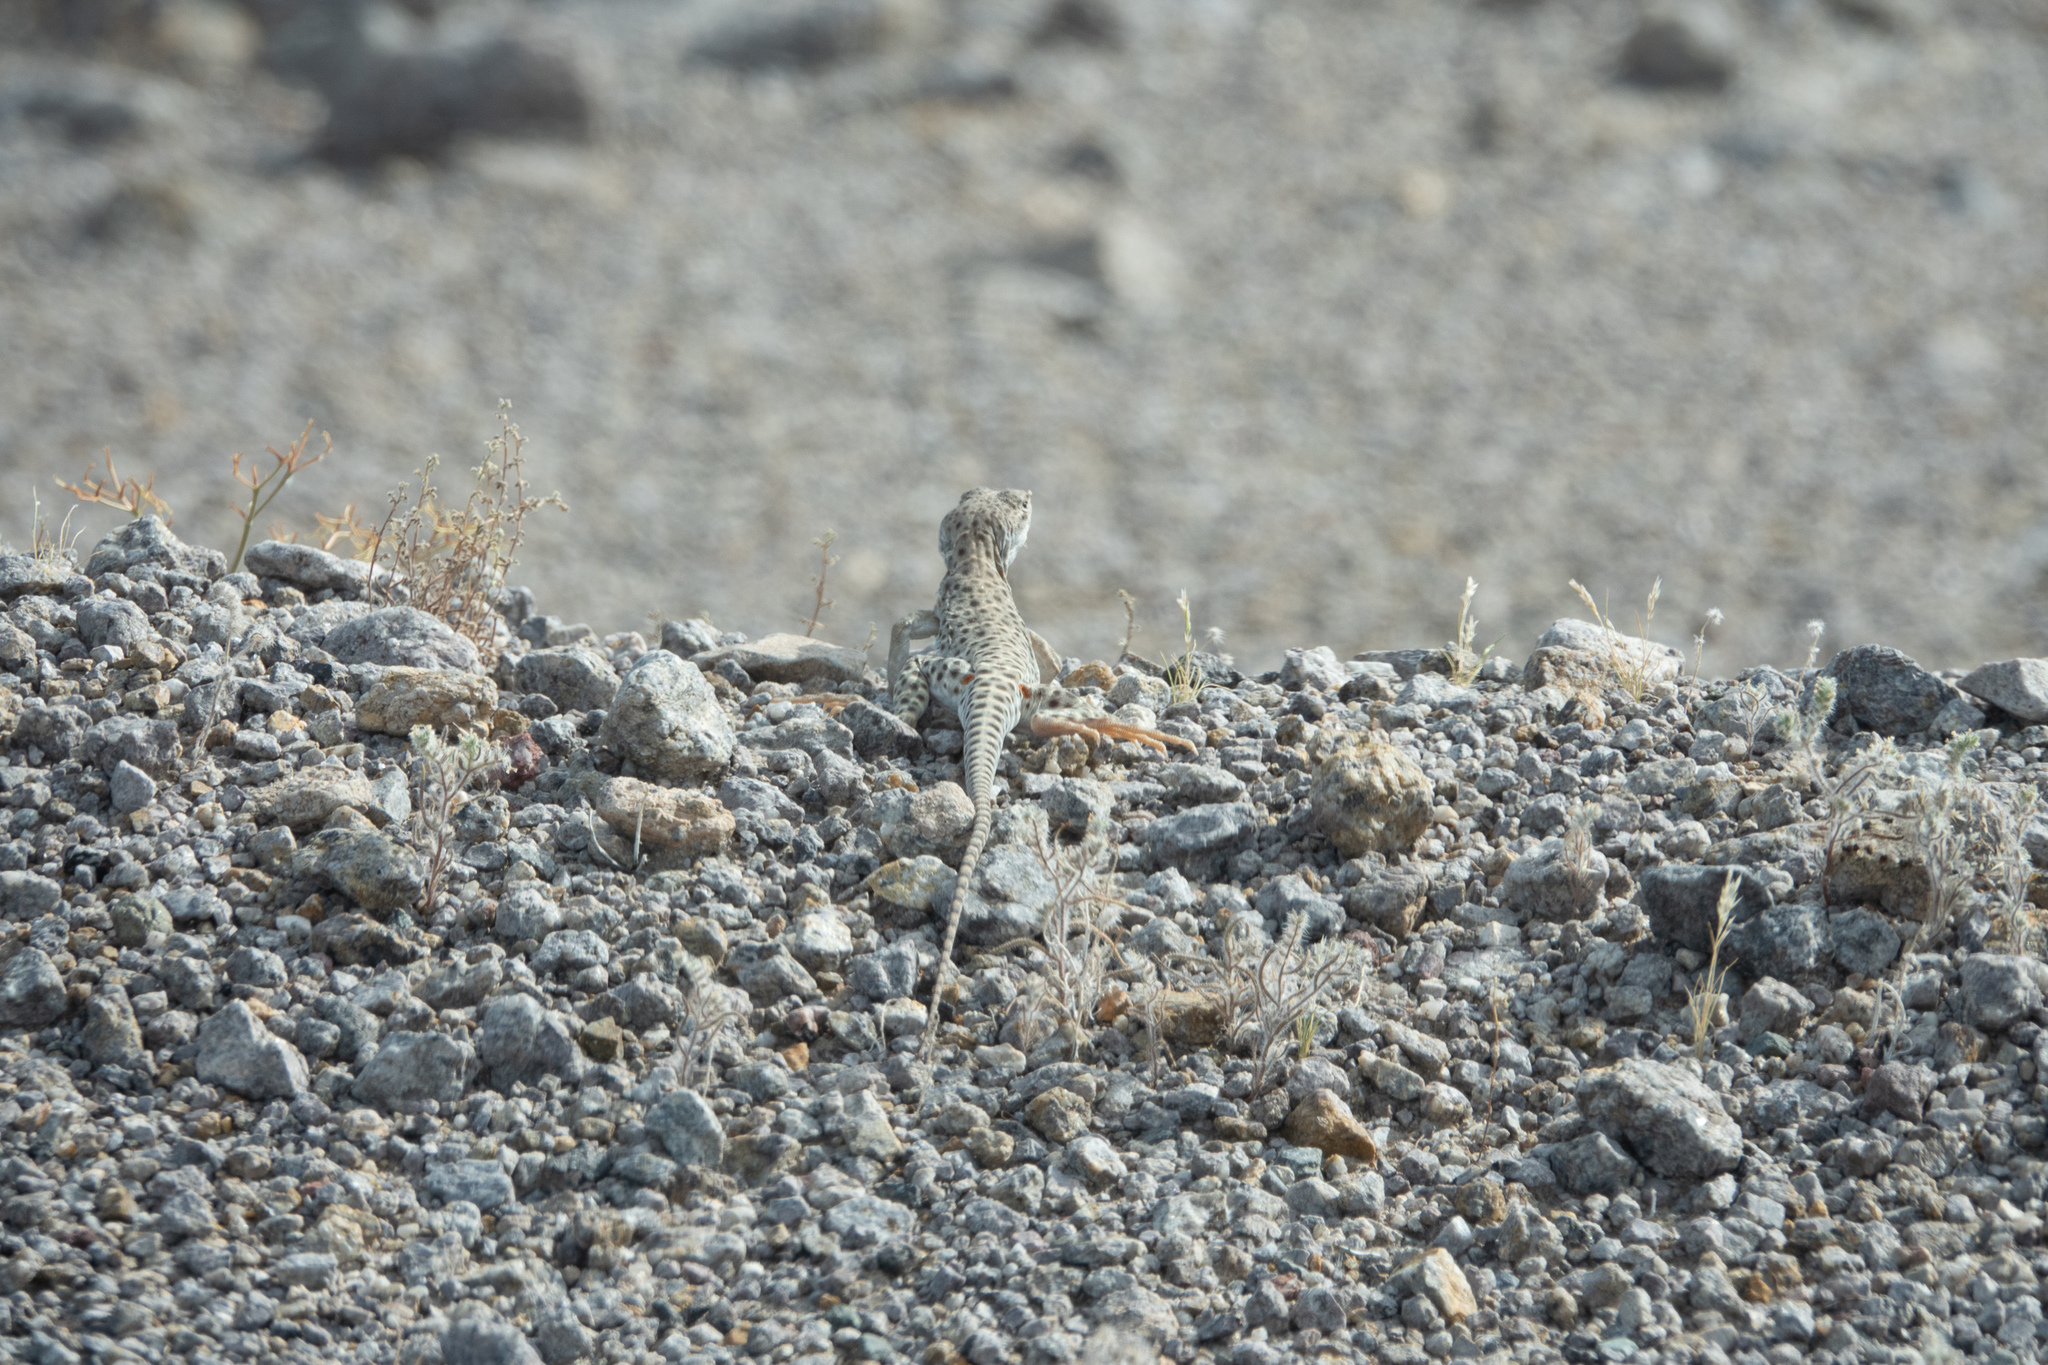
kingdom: Animalia
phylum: Chordata
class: Squamata
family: Crotaphytidae
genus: Gambelia
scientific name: Gambelia wislizenii
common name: Longnose leopard lizard
